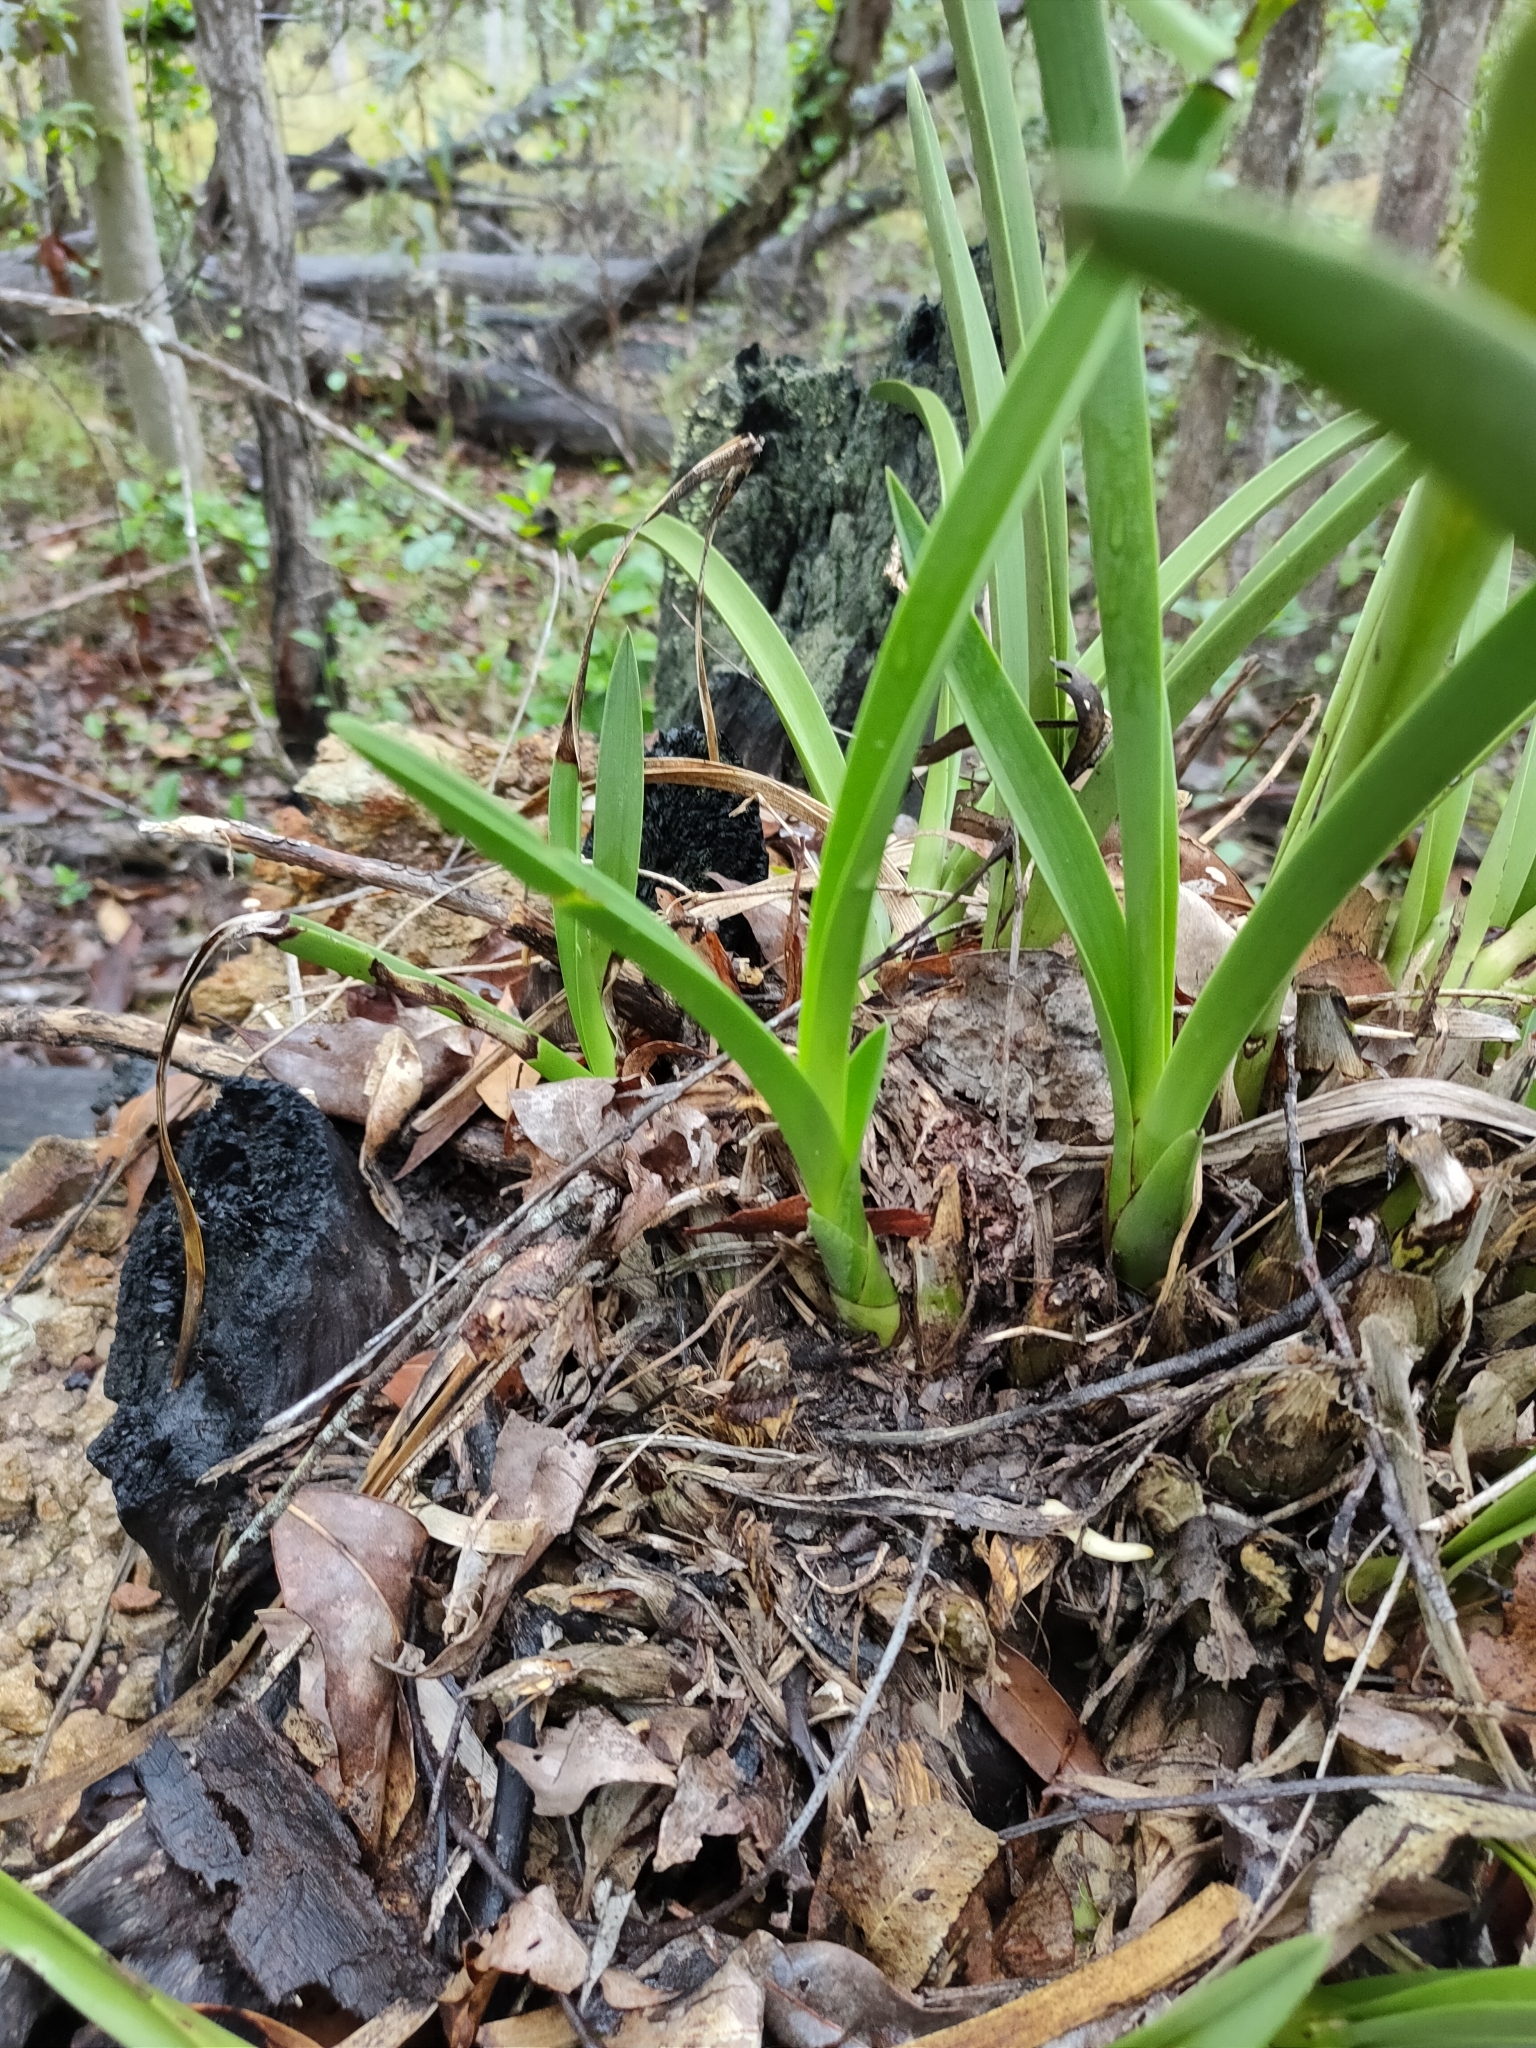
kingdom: Plantae
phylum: Tracheophyta
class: Liliopsida
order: Asparagales
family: Orchidaceae
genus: Cymbidium
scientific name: Cymbidium canaliculatum
